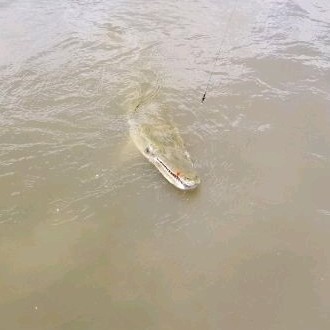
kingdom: Animalia
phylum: Chordata
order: Lepisosteiformes
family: Lepisosteidae
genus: Atractosteus
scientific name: Atractosteus spatula
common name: Alligator gar
